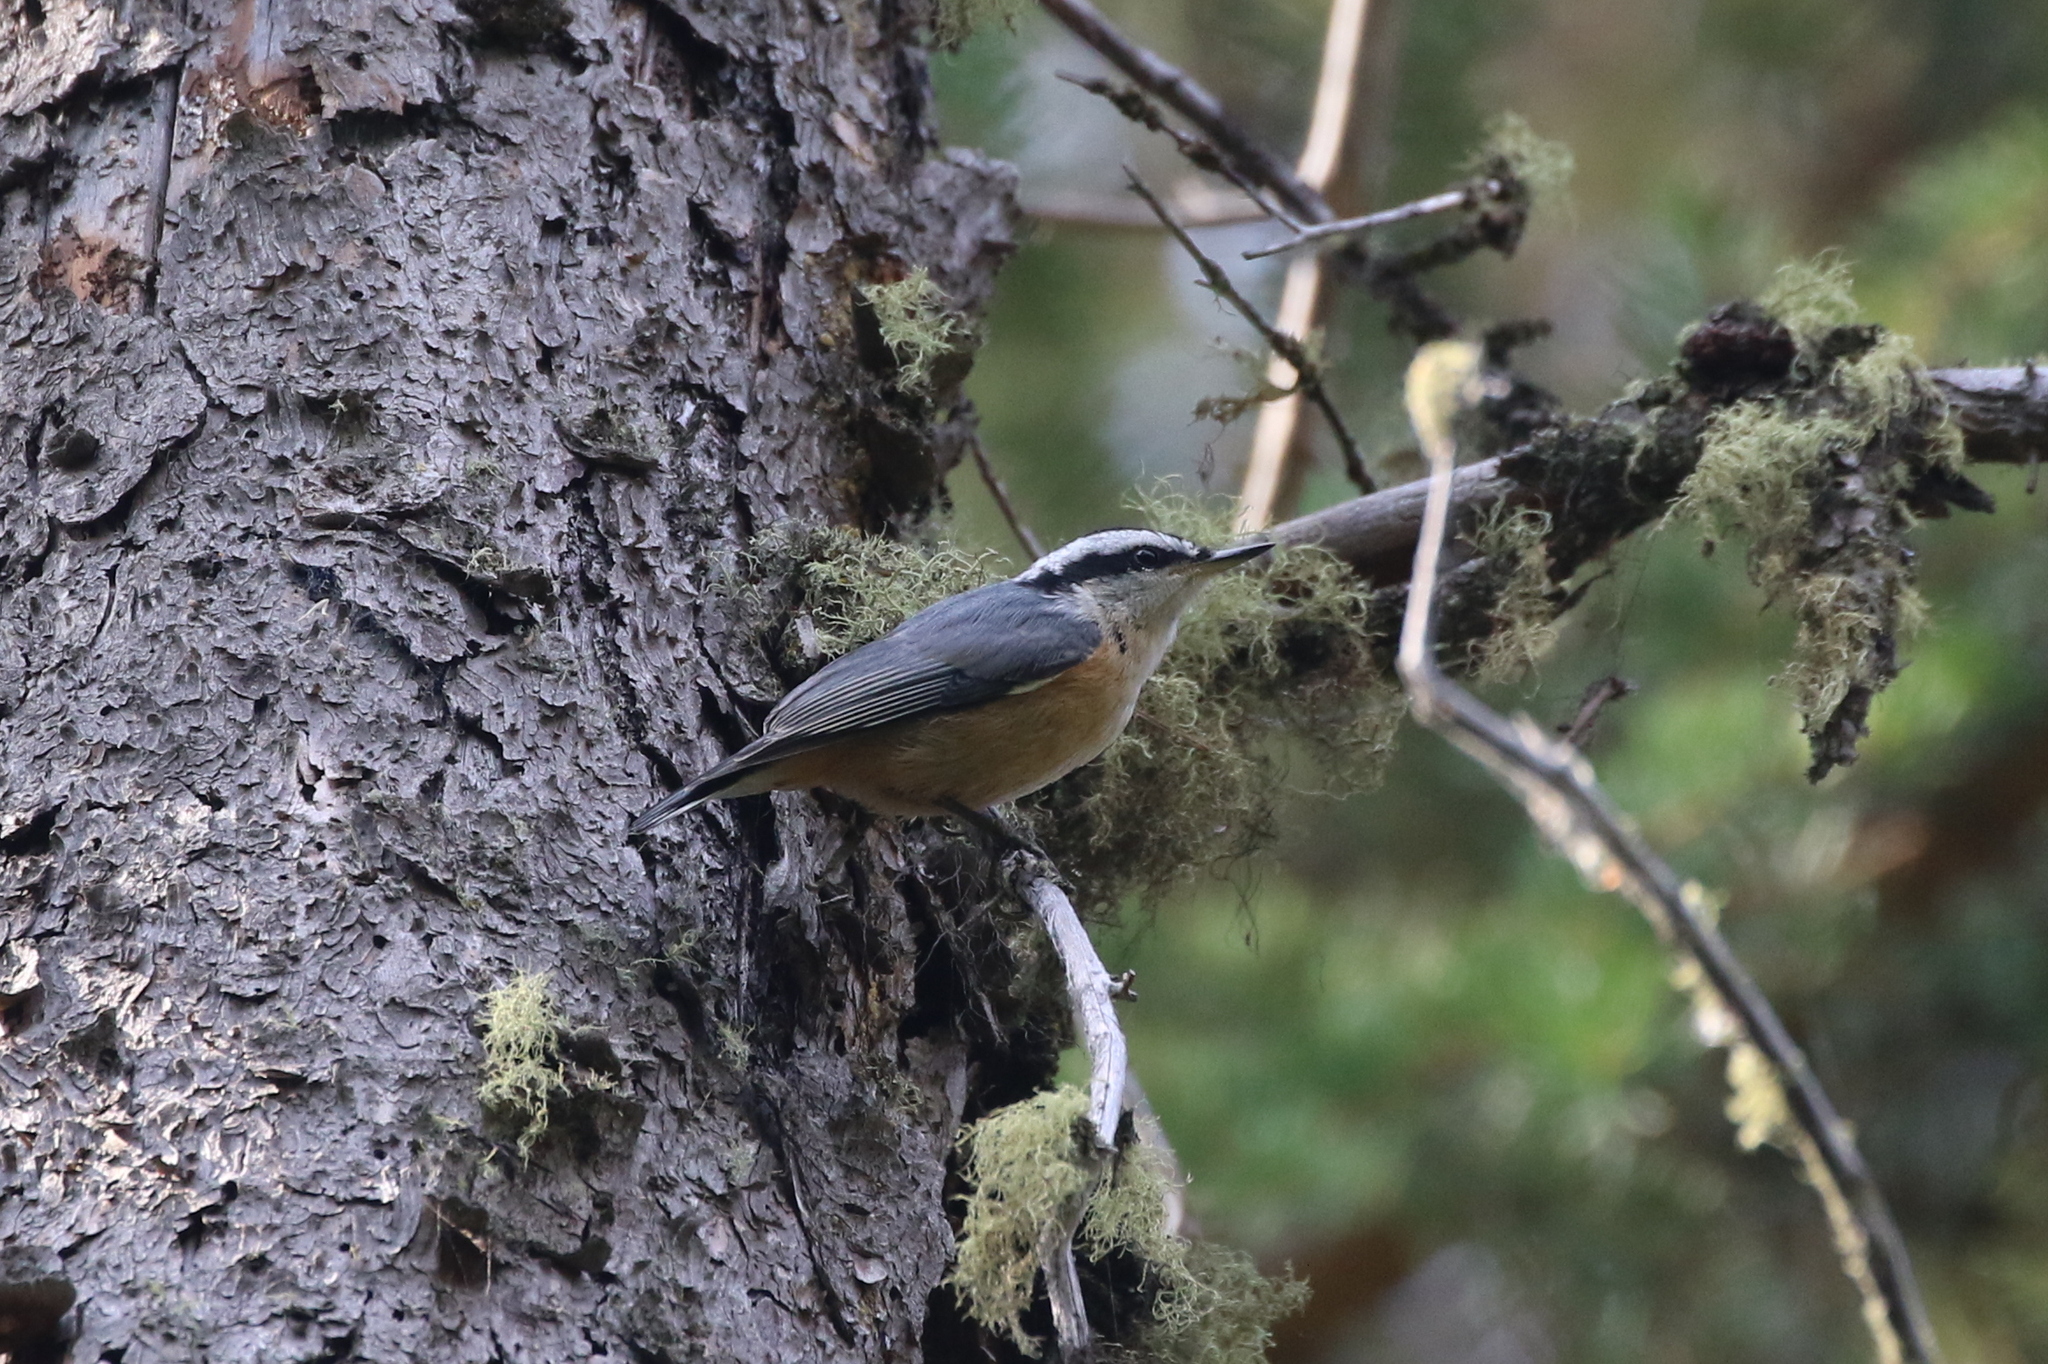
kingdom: Animalia
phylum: Chordata
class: Aves
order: Passeriformes
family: Sittidae
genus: Sitta
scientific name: Sitta canadensis
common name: Red-breasted nuthatch
